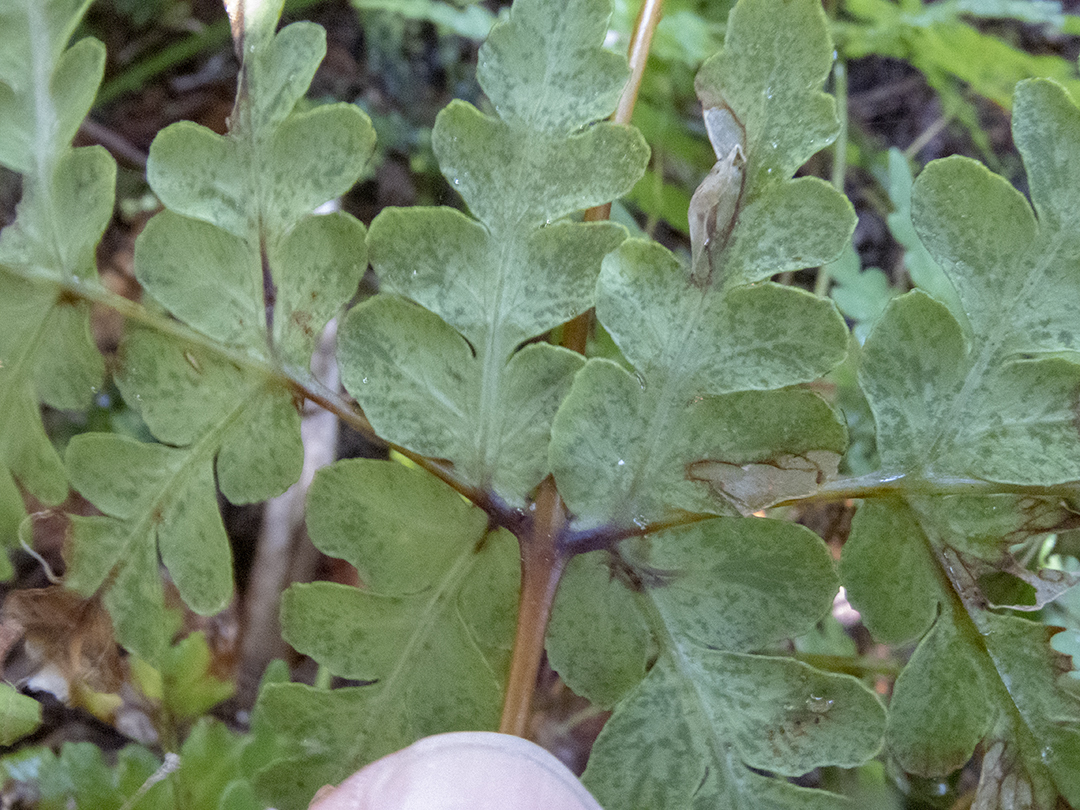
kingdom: Plantae
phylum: Tracheophyta
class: Polypodiopsida
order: Polypodiales
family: Dennstaedtiaceae
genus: Histiopteris
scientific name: Histiopteris incisa
